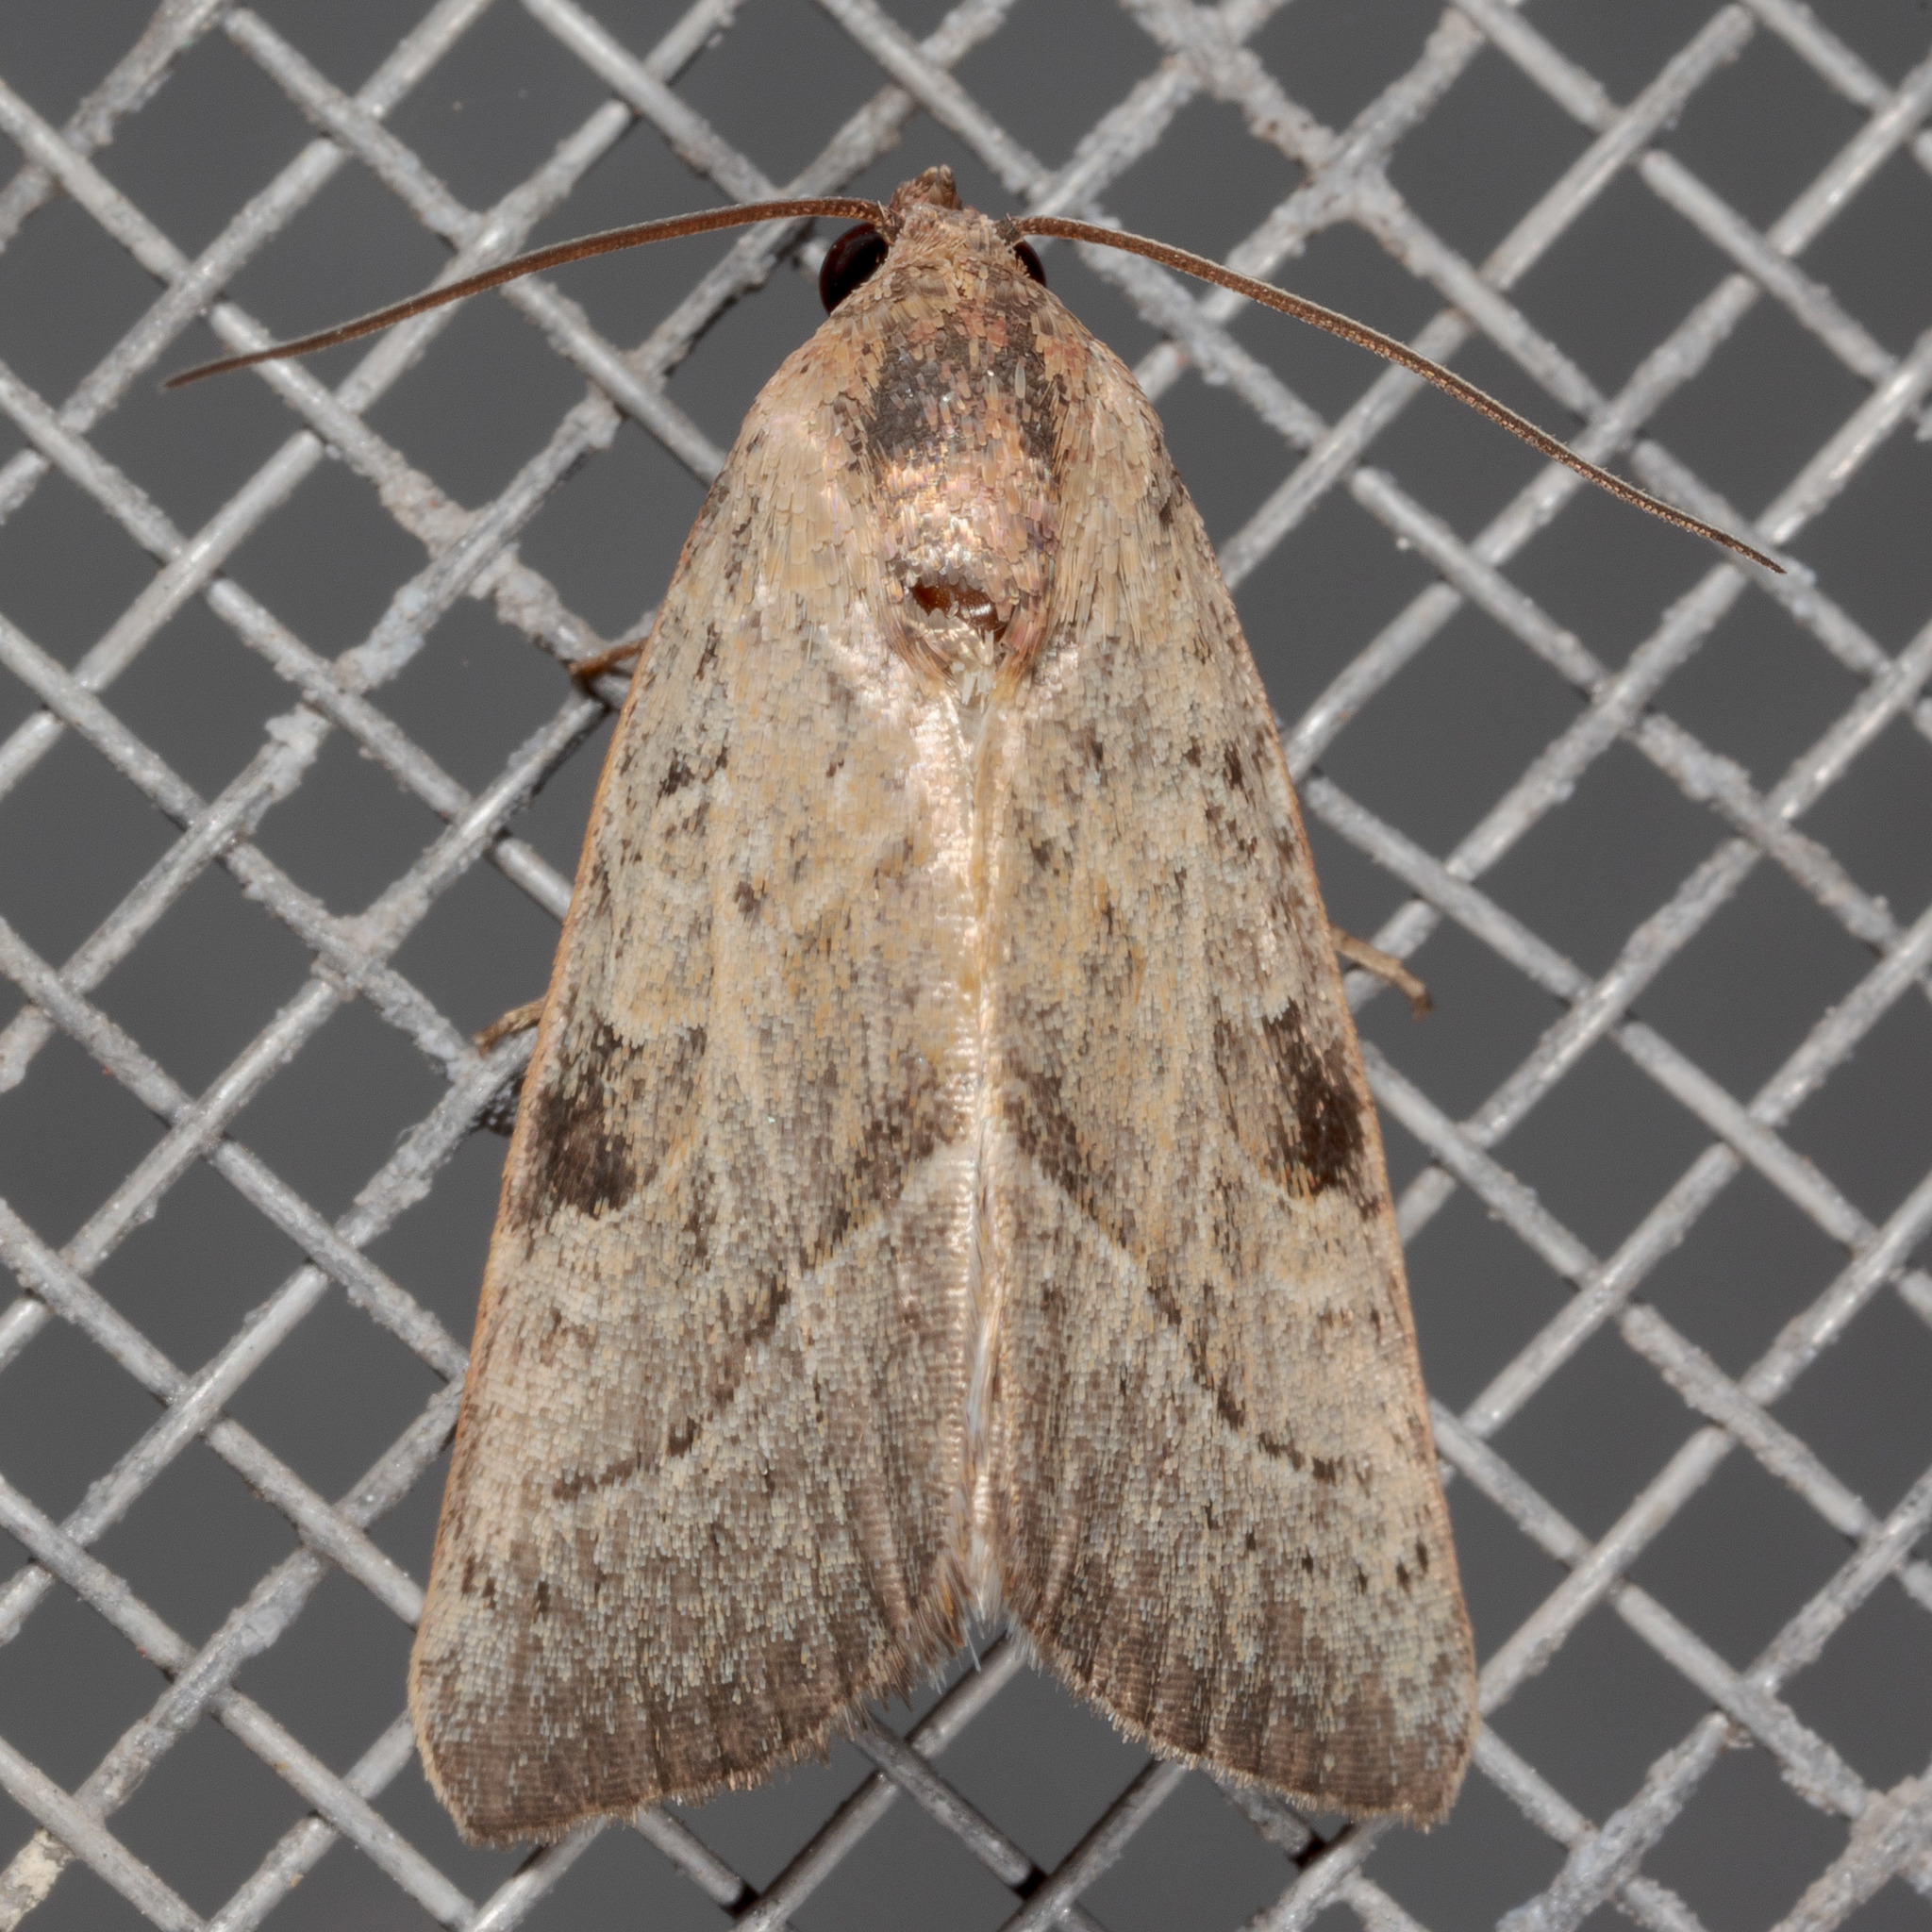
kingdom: Animalia
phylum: Arthropoda
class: Insecta
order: Lepidoptera
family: Noctuidae
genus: Galgula
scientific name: Galgula partita
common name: Wedgeling
